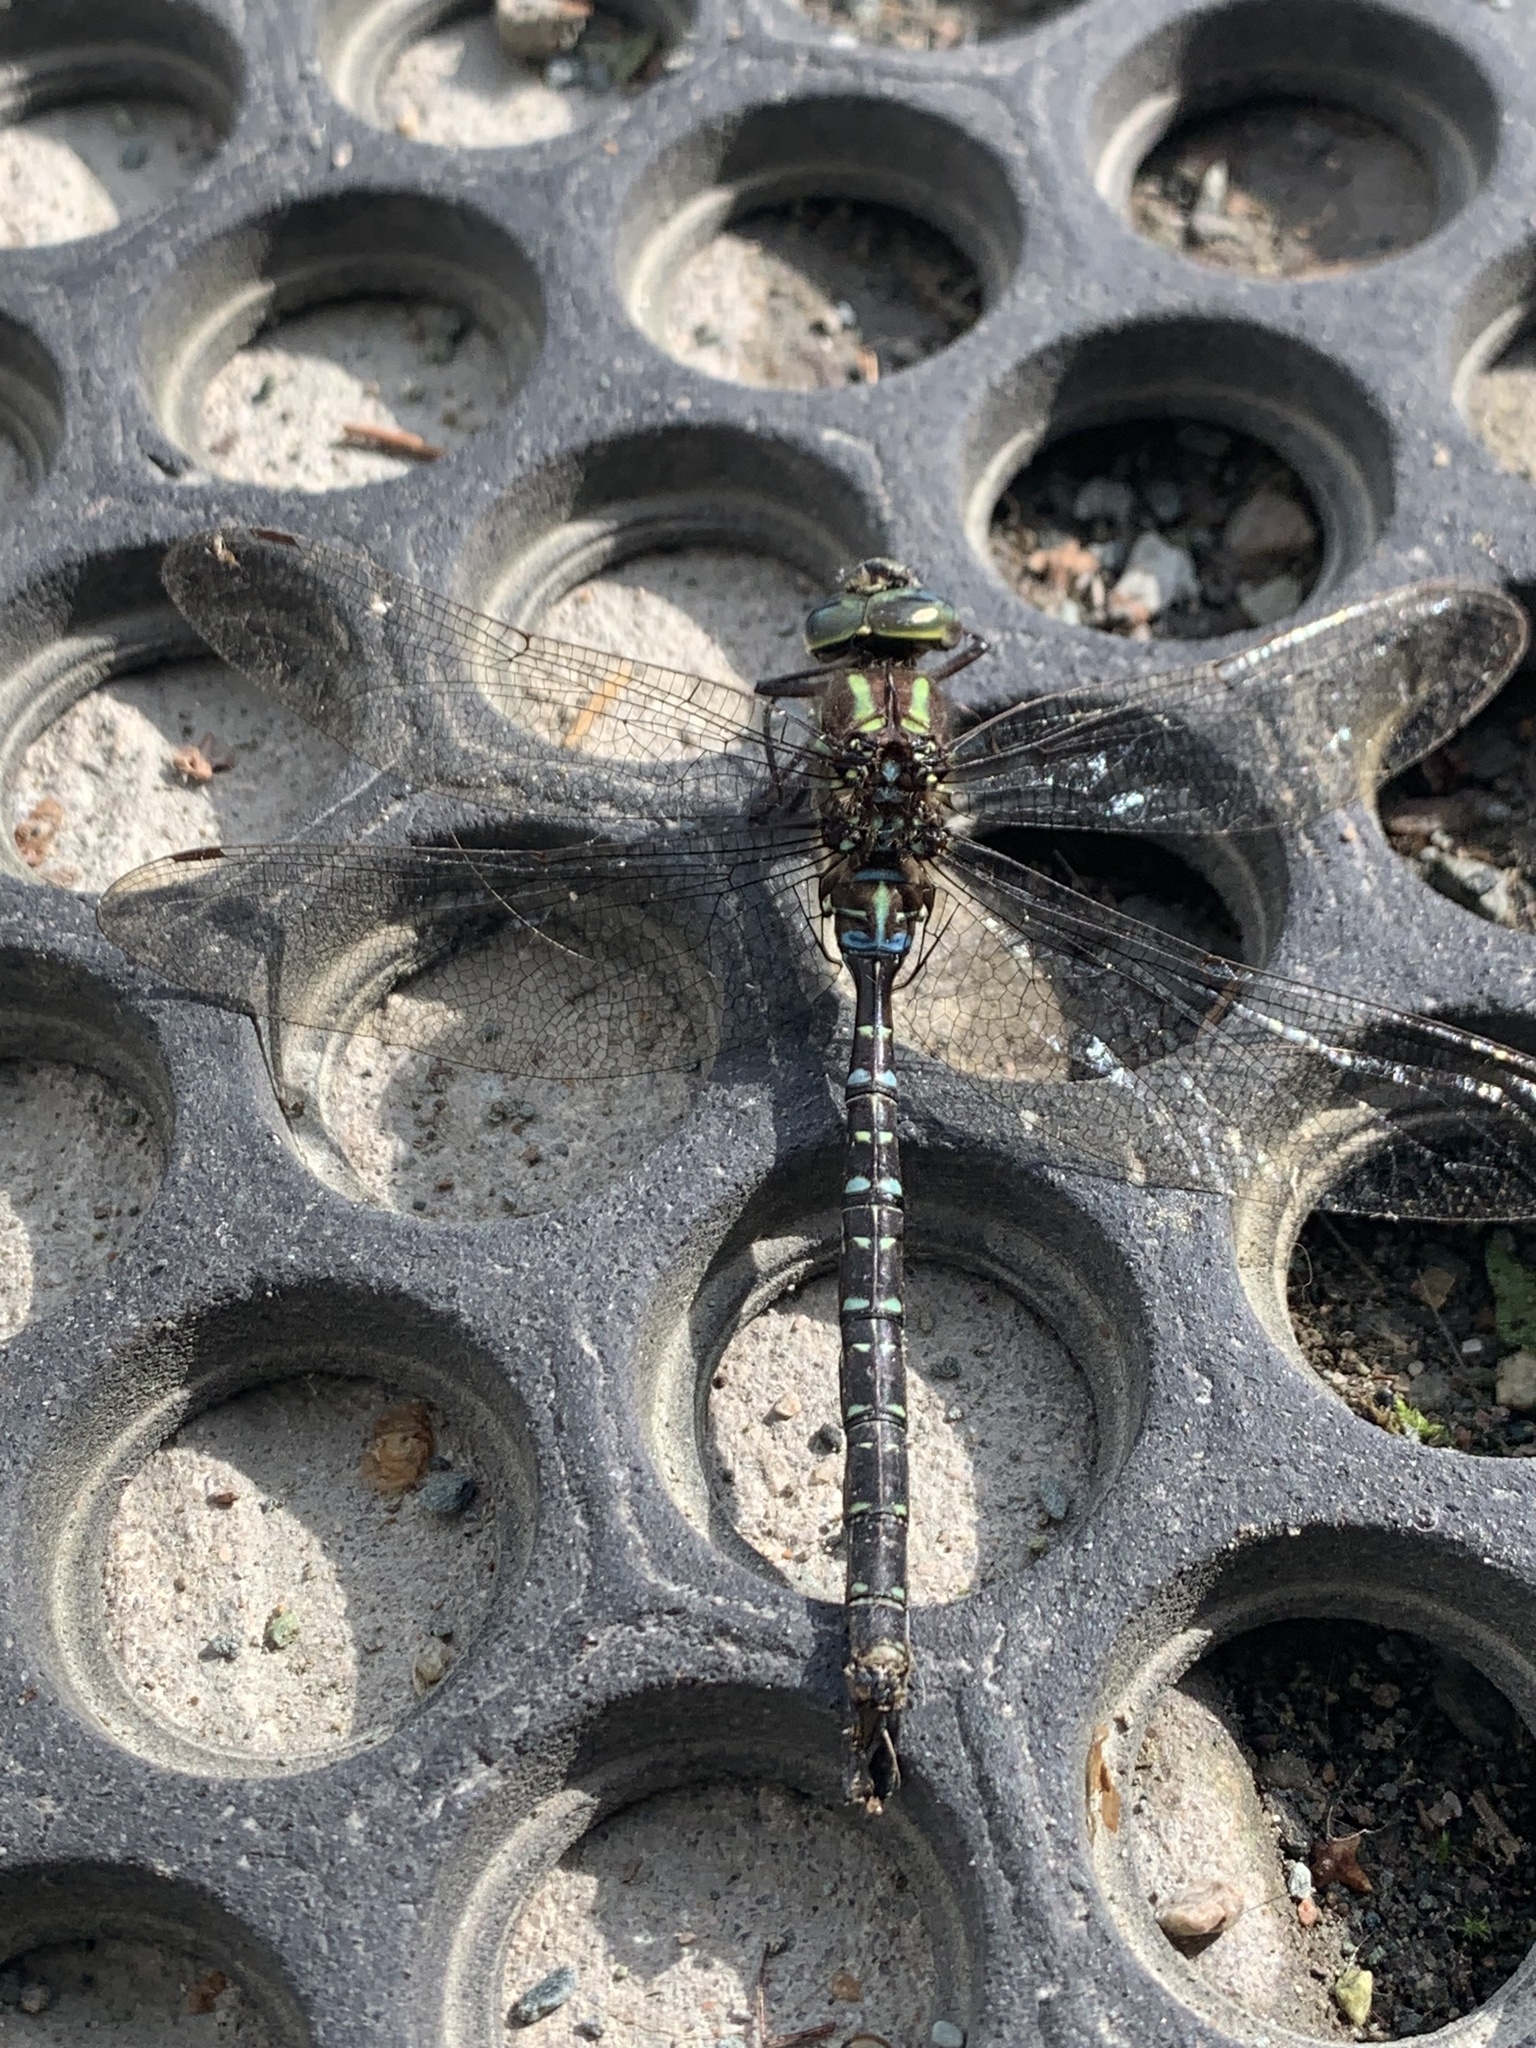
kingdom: Animalia
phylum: Arthropoda
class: Insecta
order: Odonata
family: Aeshnidae
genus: Aeshna
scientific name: Aeshna umbrosa
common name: Shadow darner
